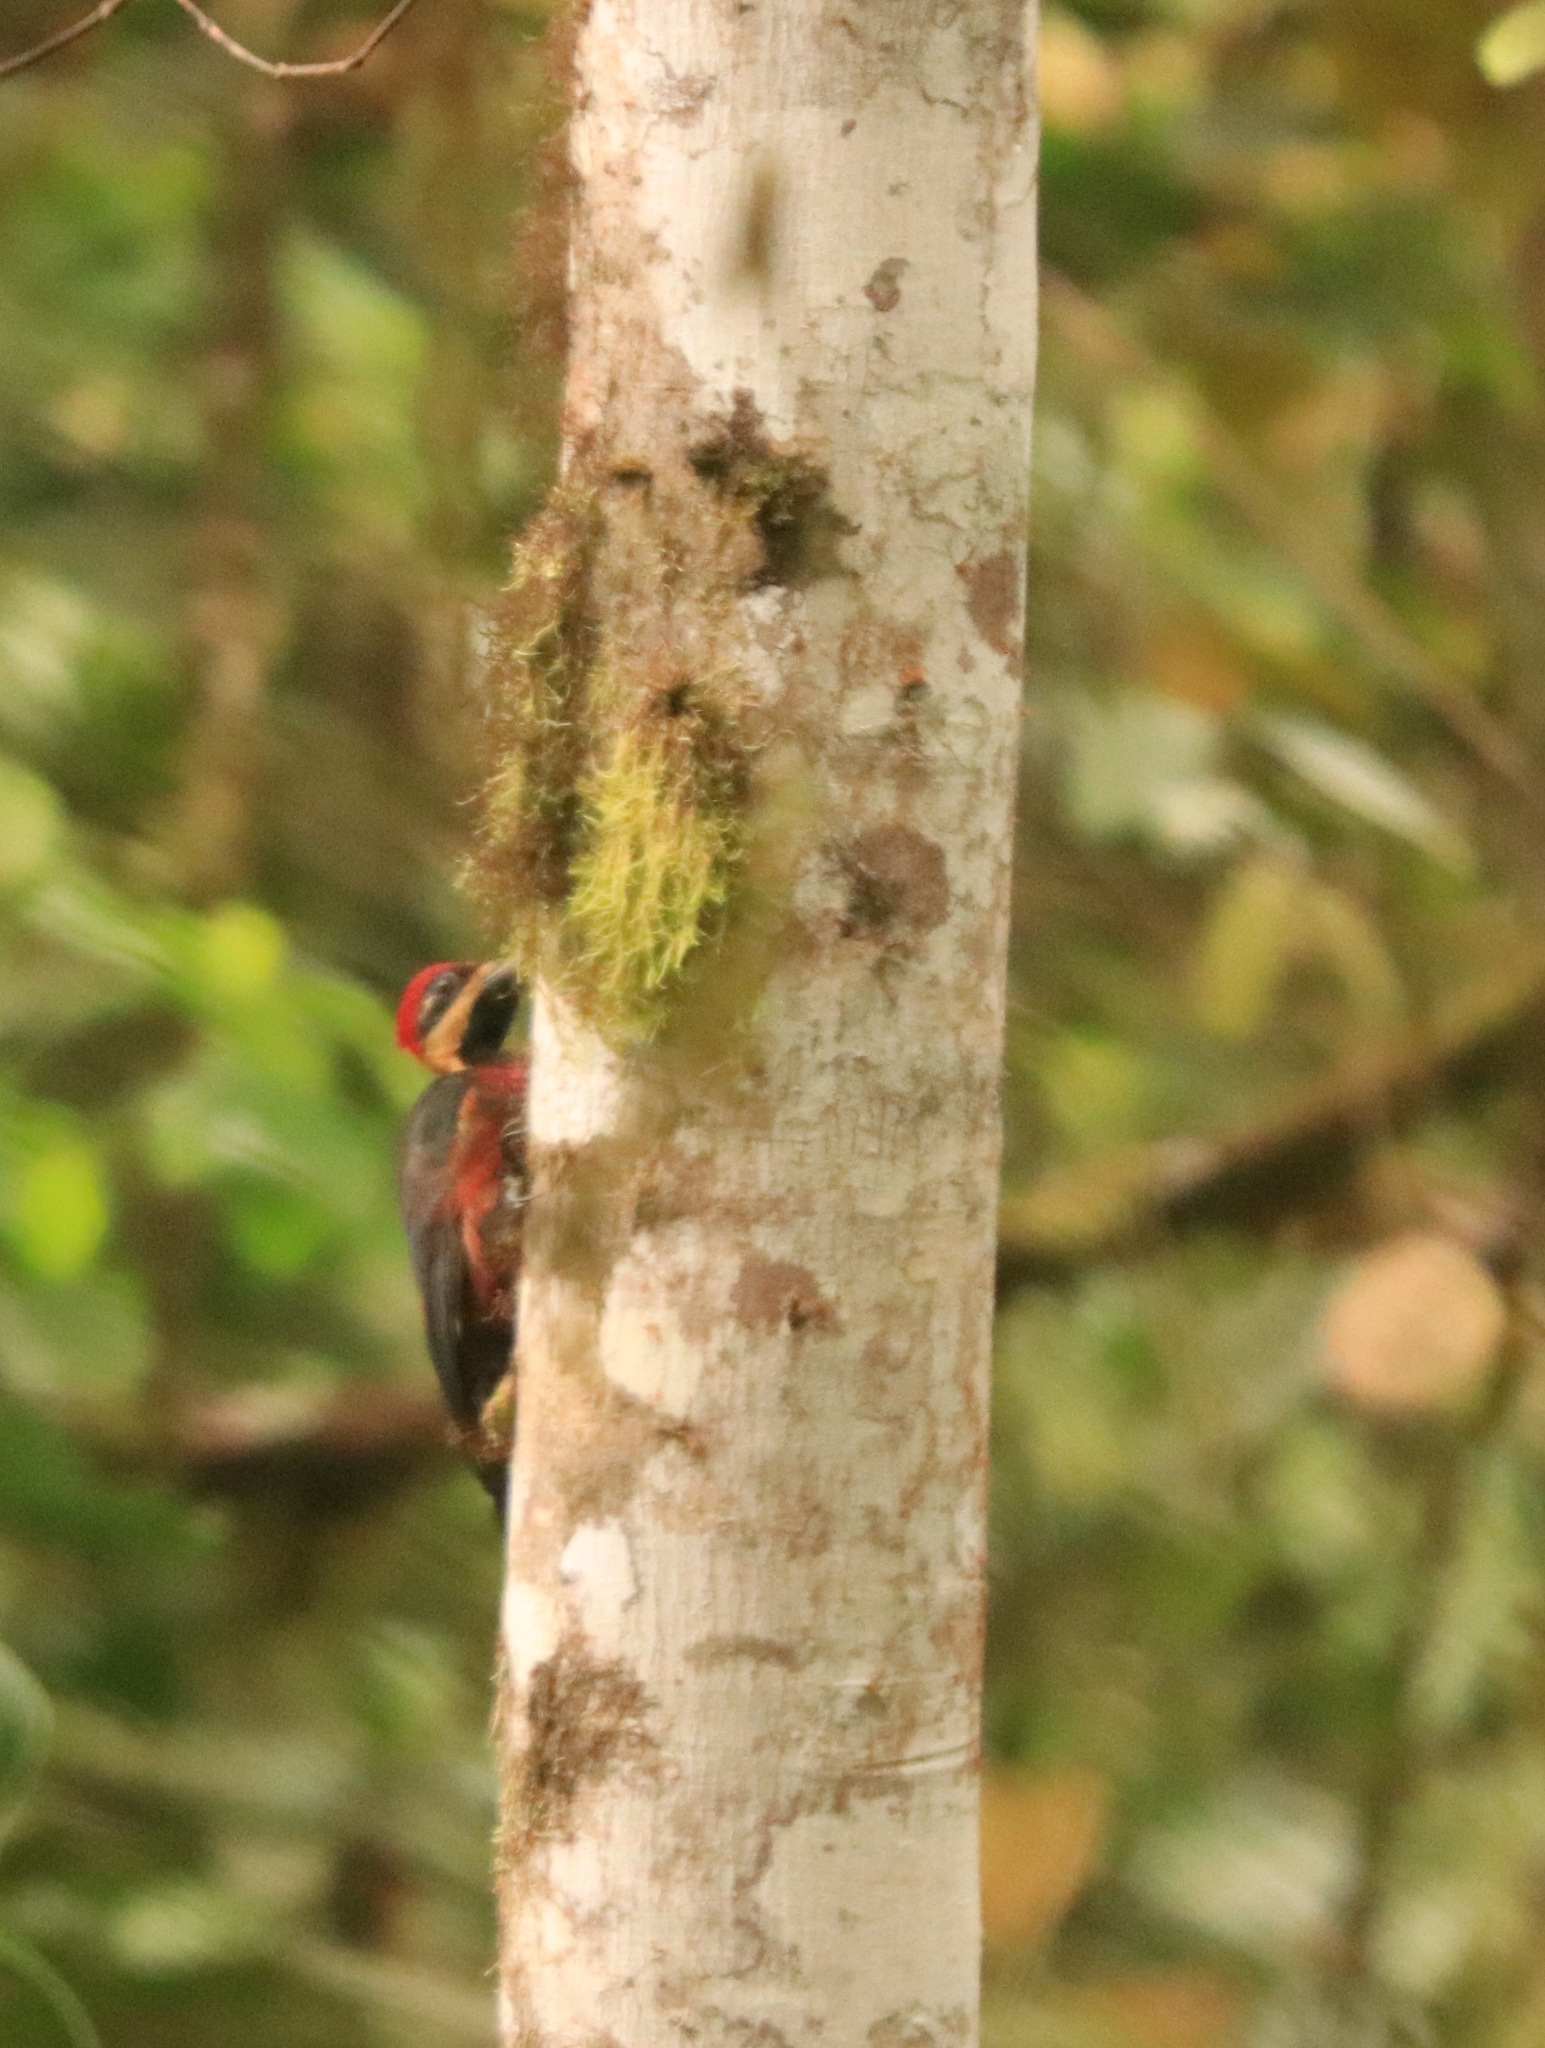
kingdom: Animalia
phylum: Chordata
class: Aves
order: Piciformes
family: Picidae
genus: Campephilus
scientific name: Campephilus haematogaster
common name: Crimson-bellied woodpecker
